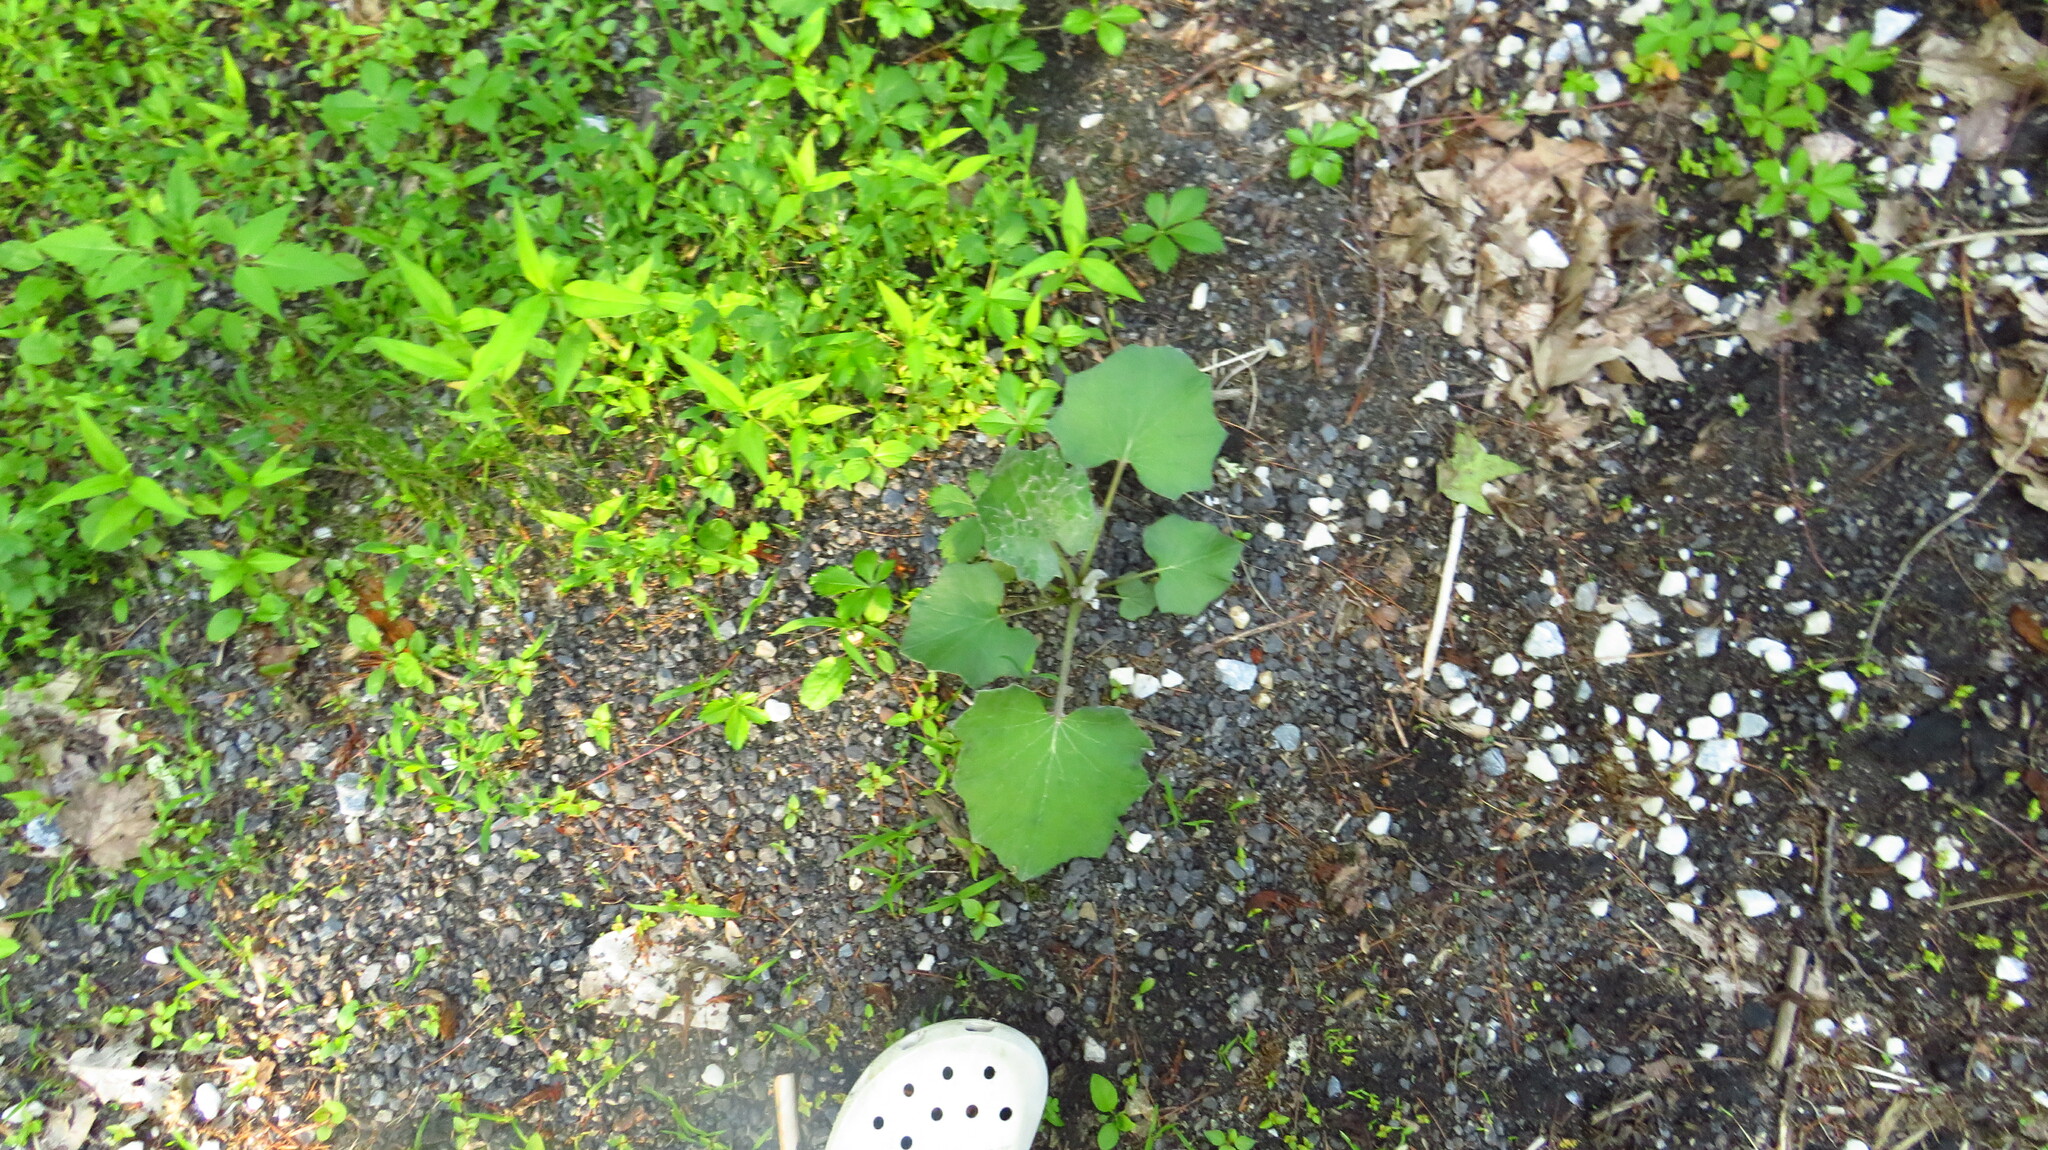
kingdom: Plantae
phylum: Tracheophyta
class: Magnoliopsida
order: Asterales
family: Asteraceae
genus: Tussilago
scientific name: Tussilago farfara
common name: Coltsfoot
